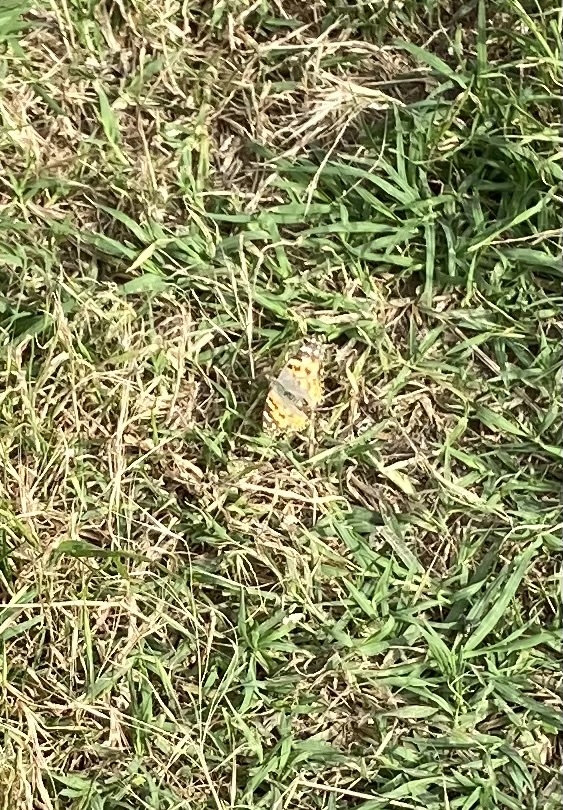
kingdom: Animalia
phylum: Arthropoda
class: Insecta
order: Lepidoptera
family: Nymphalidae
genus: Vanessa
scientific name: Vanessa cardui
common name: Painted lady
